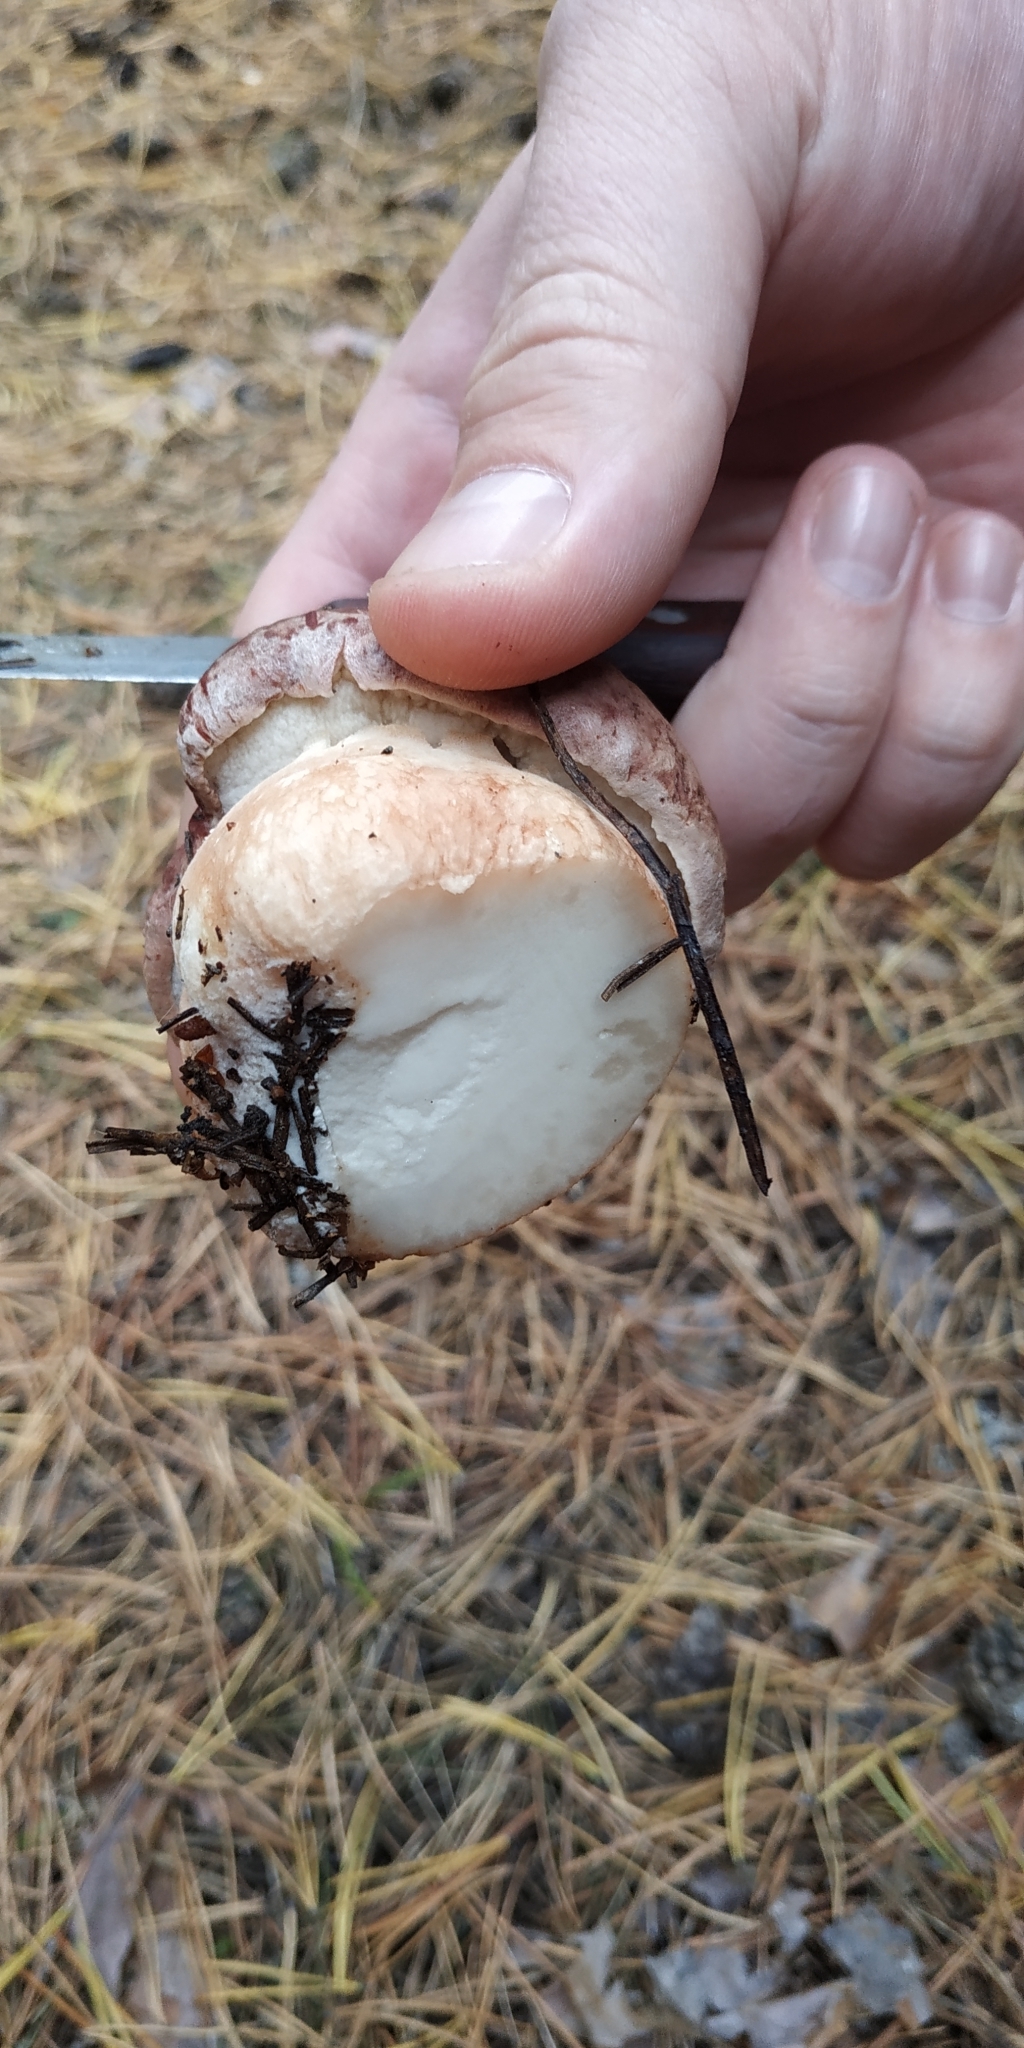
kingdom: Fungi
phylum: Basidiomycota
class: Agaricomycetes
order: Boletales
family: Boletaceae
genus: Boletus
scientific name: Boletus pinophilus
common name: Pine bolete
